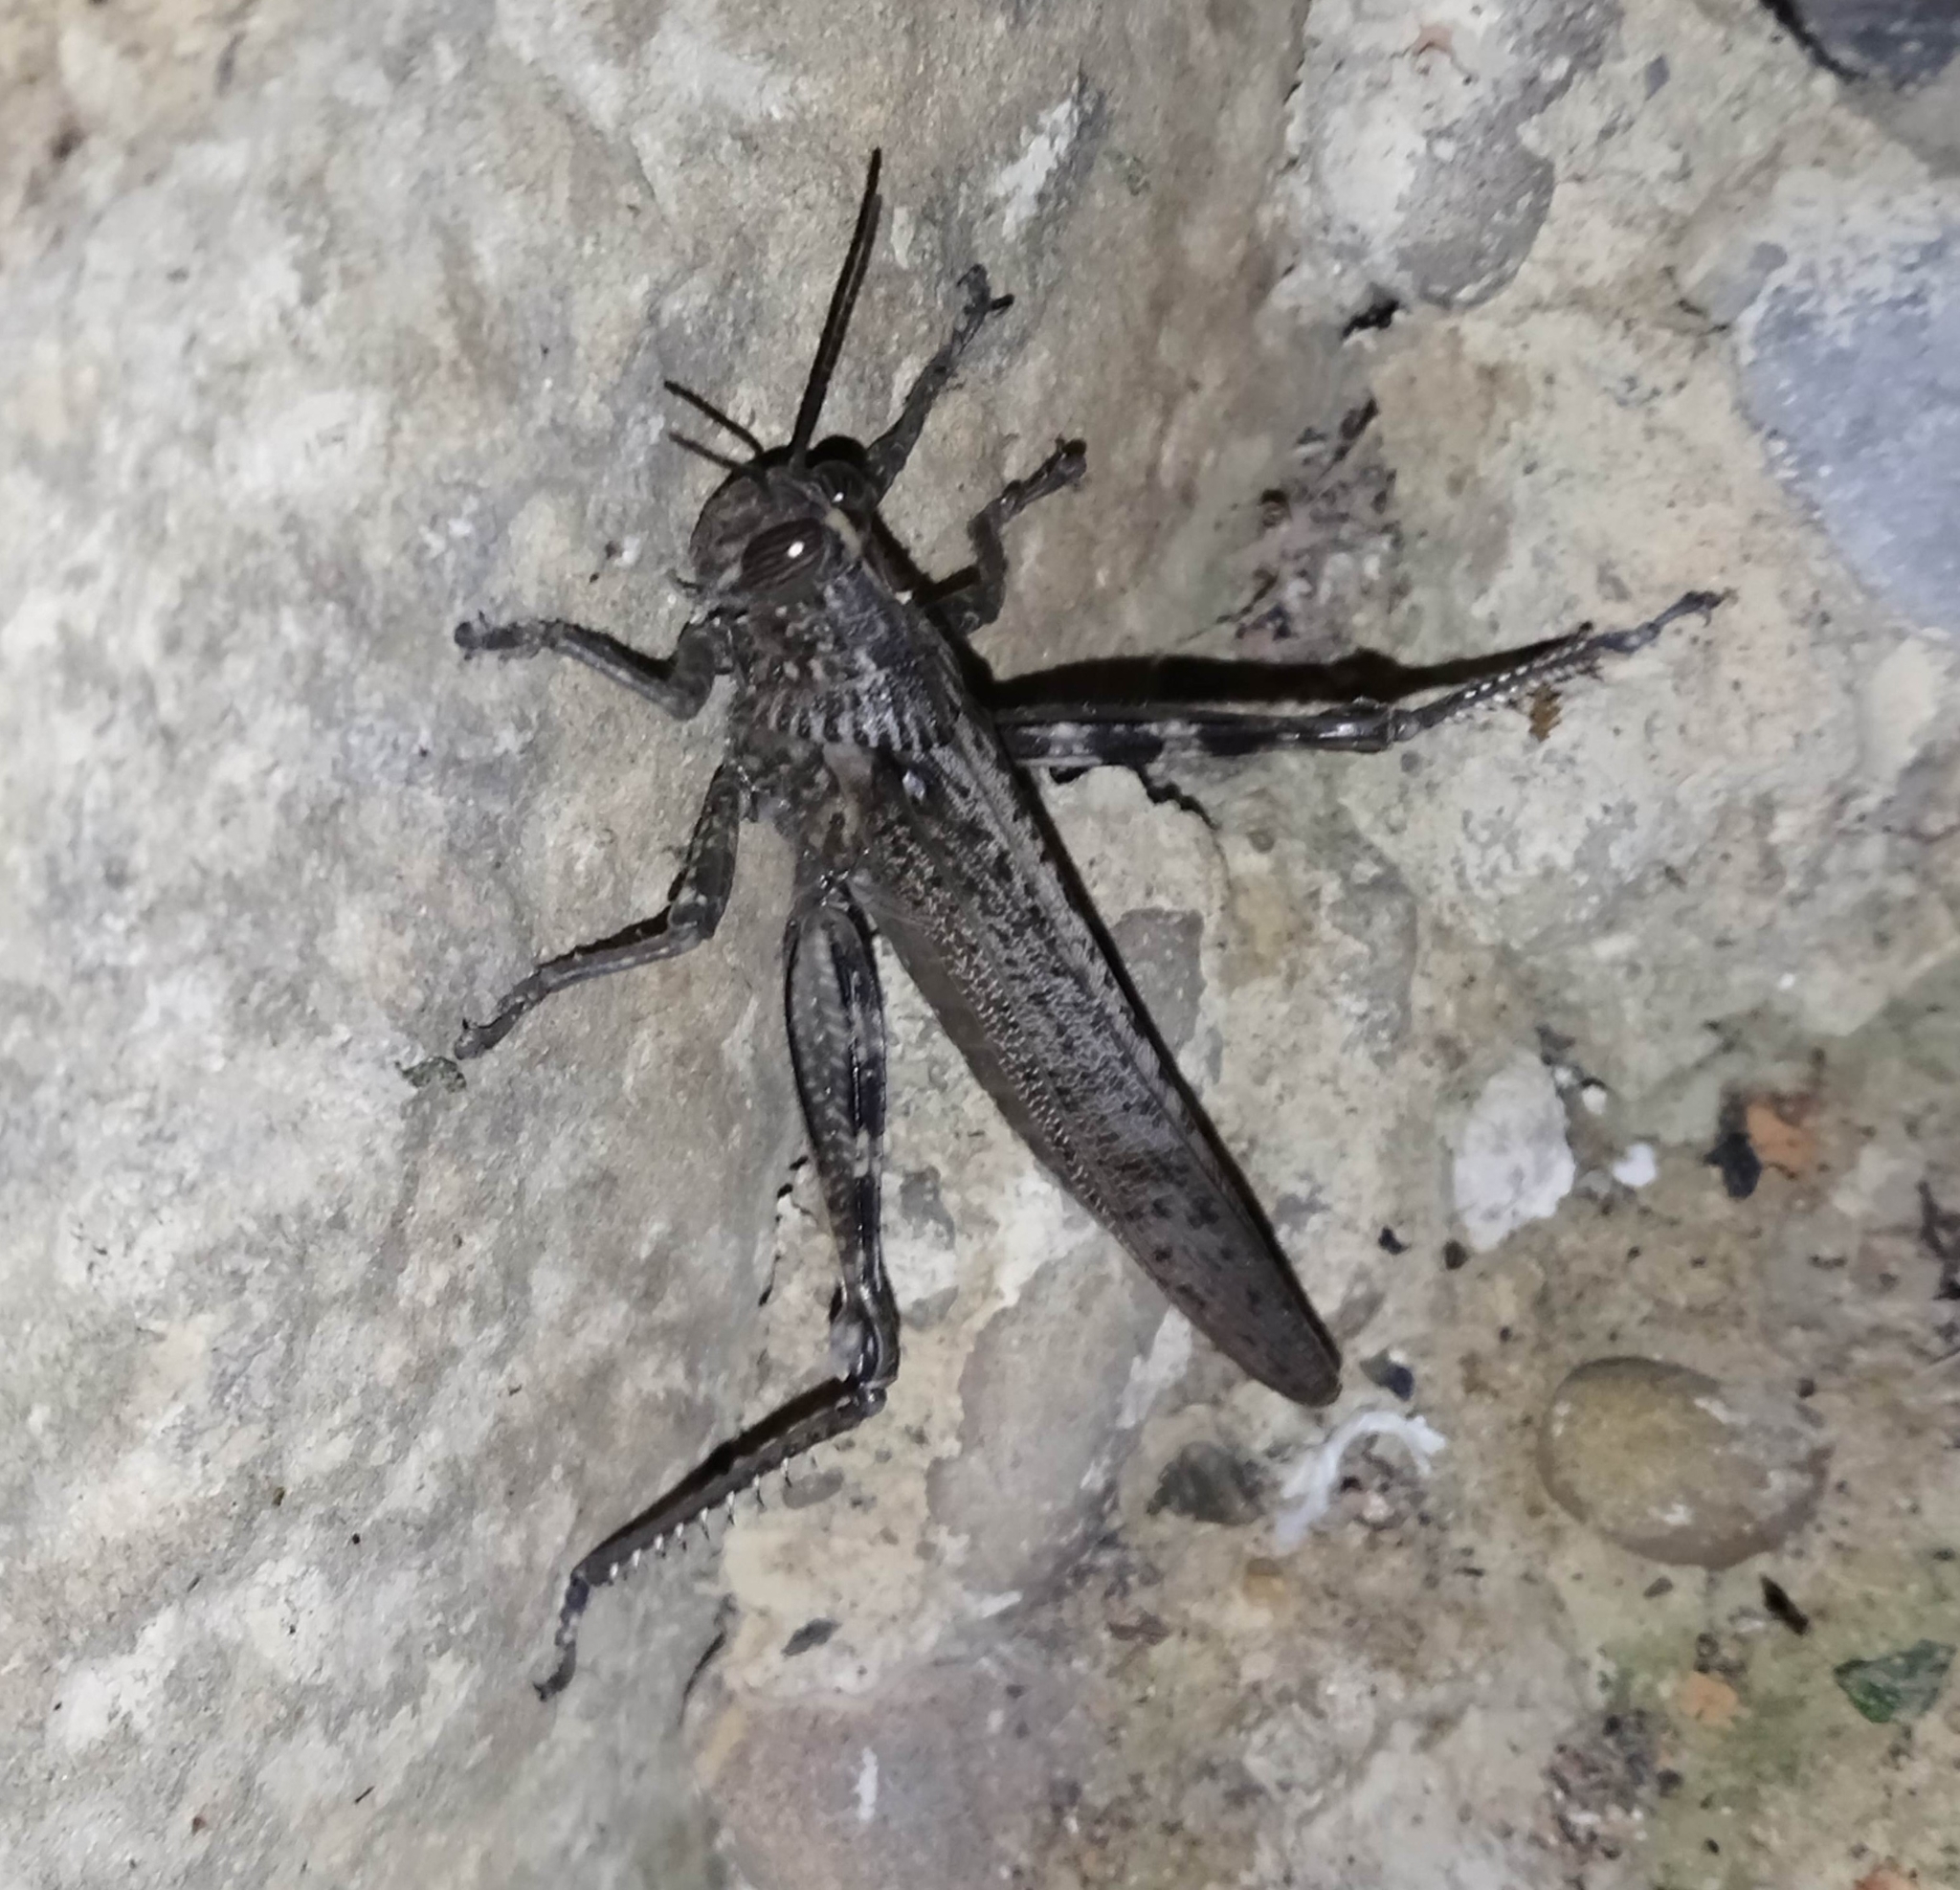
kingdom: Animalia
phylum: Arthropoda
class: Insecta
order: Orthoptera
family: Acrididae
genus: Anacridium
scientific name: Anacridium aegyptium
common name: Egyptian grasshopper
